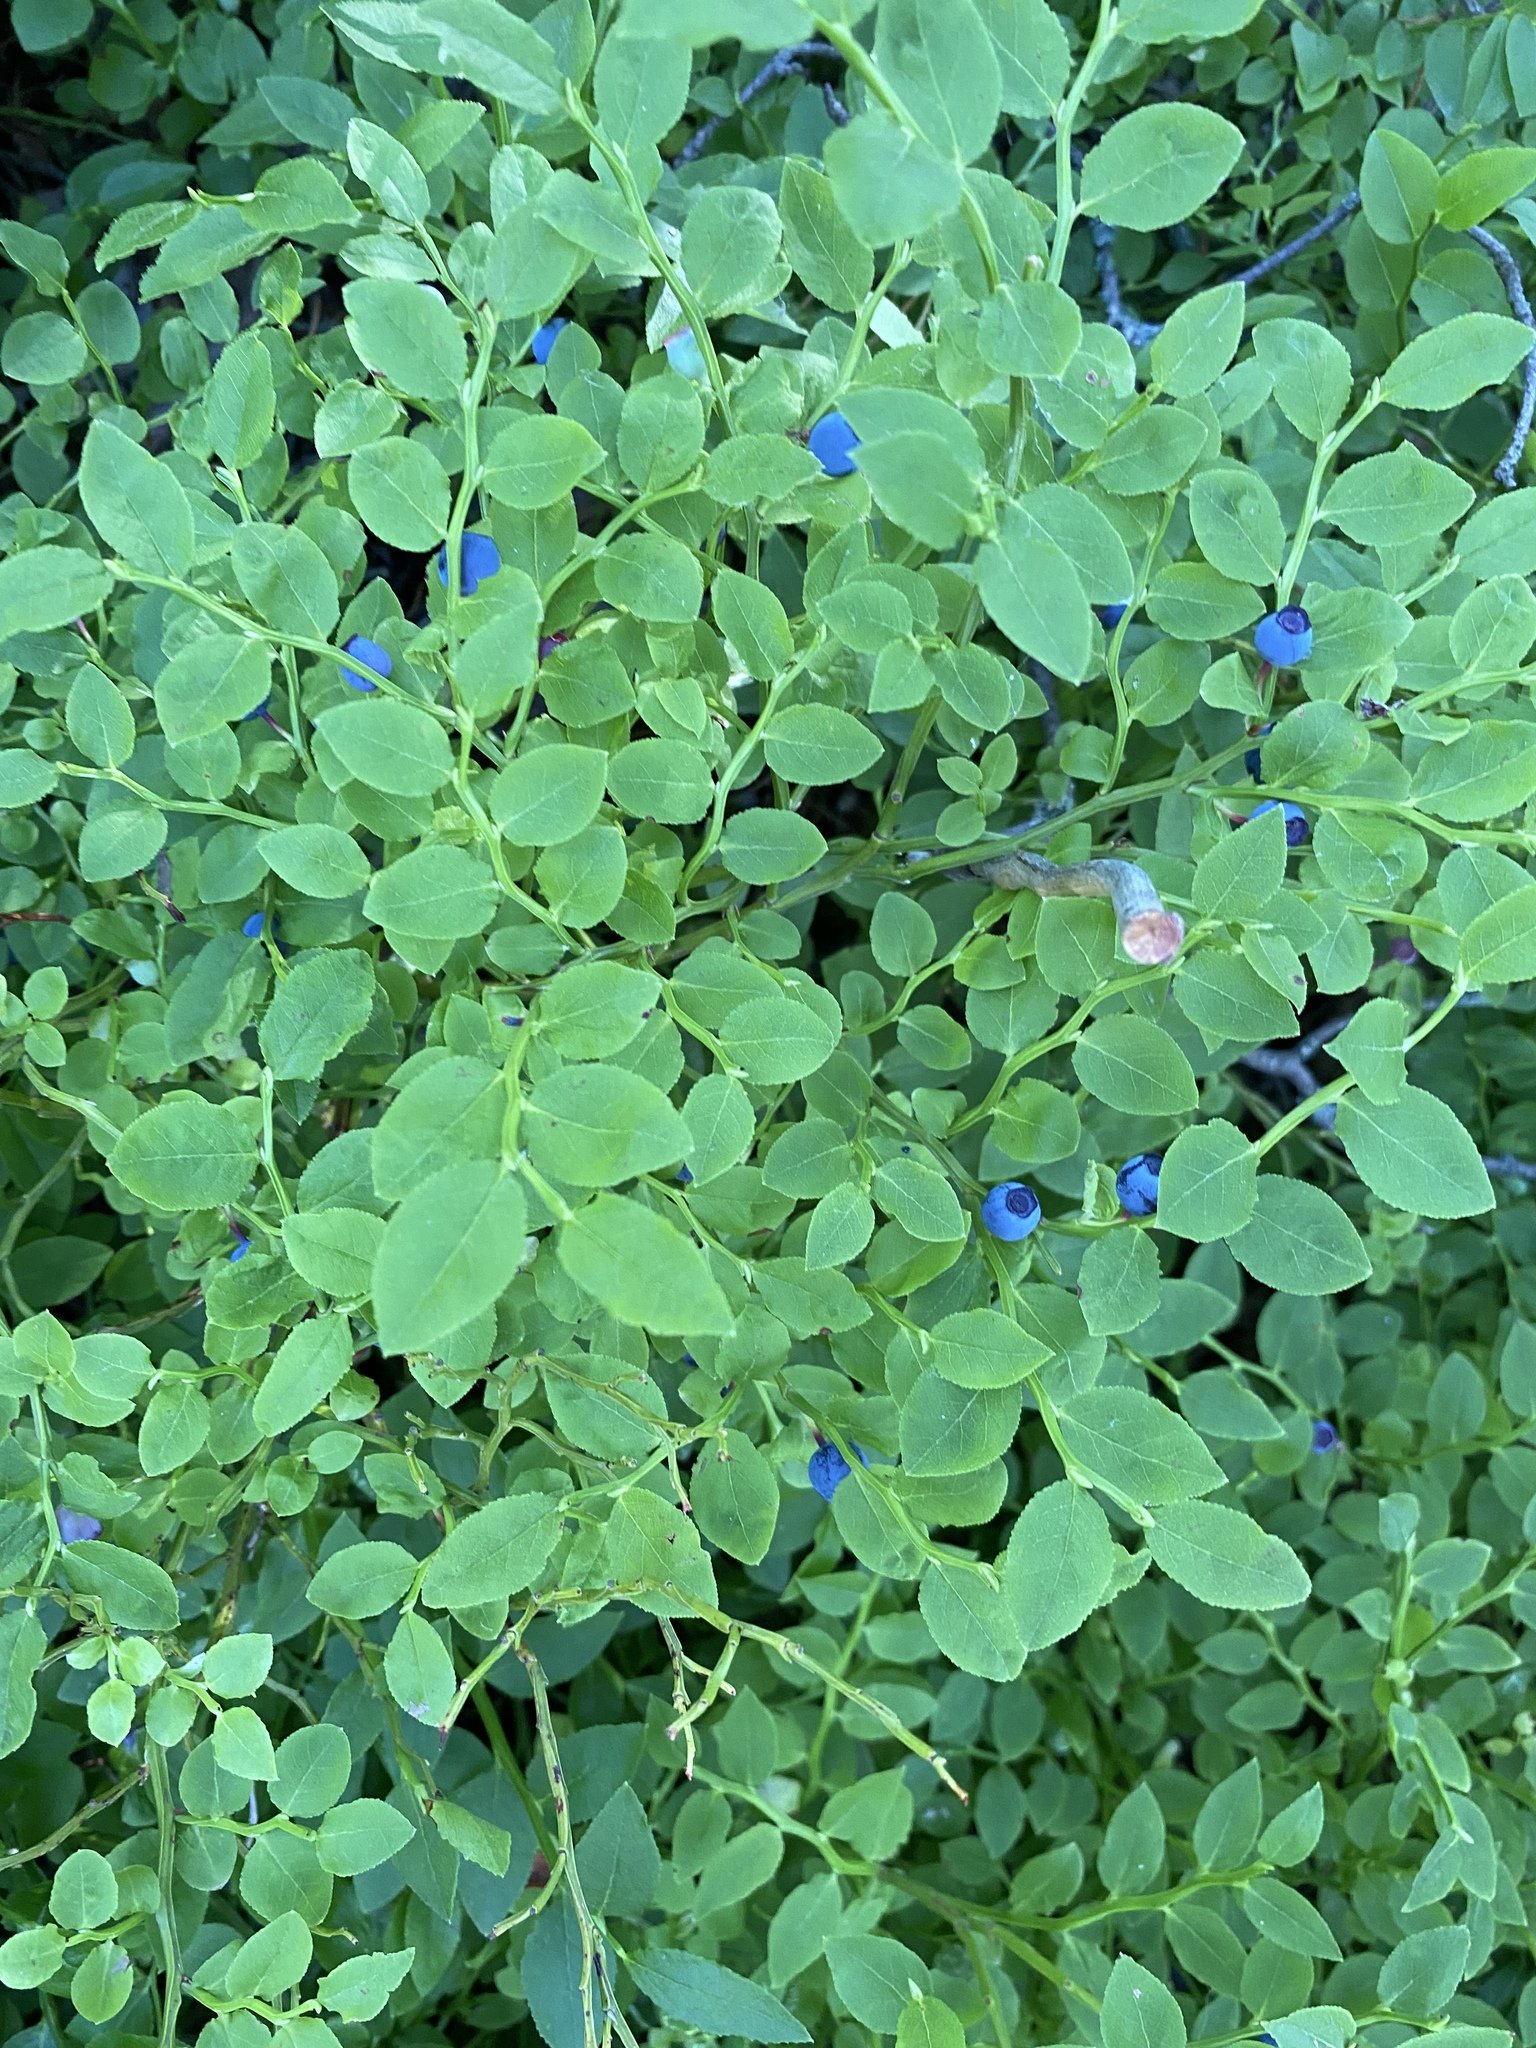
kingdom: Plantae
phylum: Tracheophyta
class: Magnoliopsida
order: Ericales
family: Ericaceae
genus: Vaccinium
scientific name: Vaccinium myrtillus
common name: Bilberry
